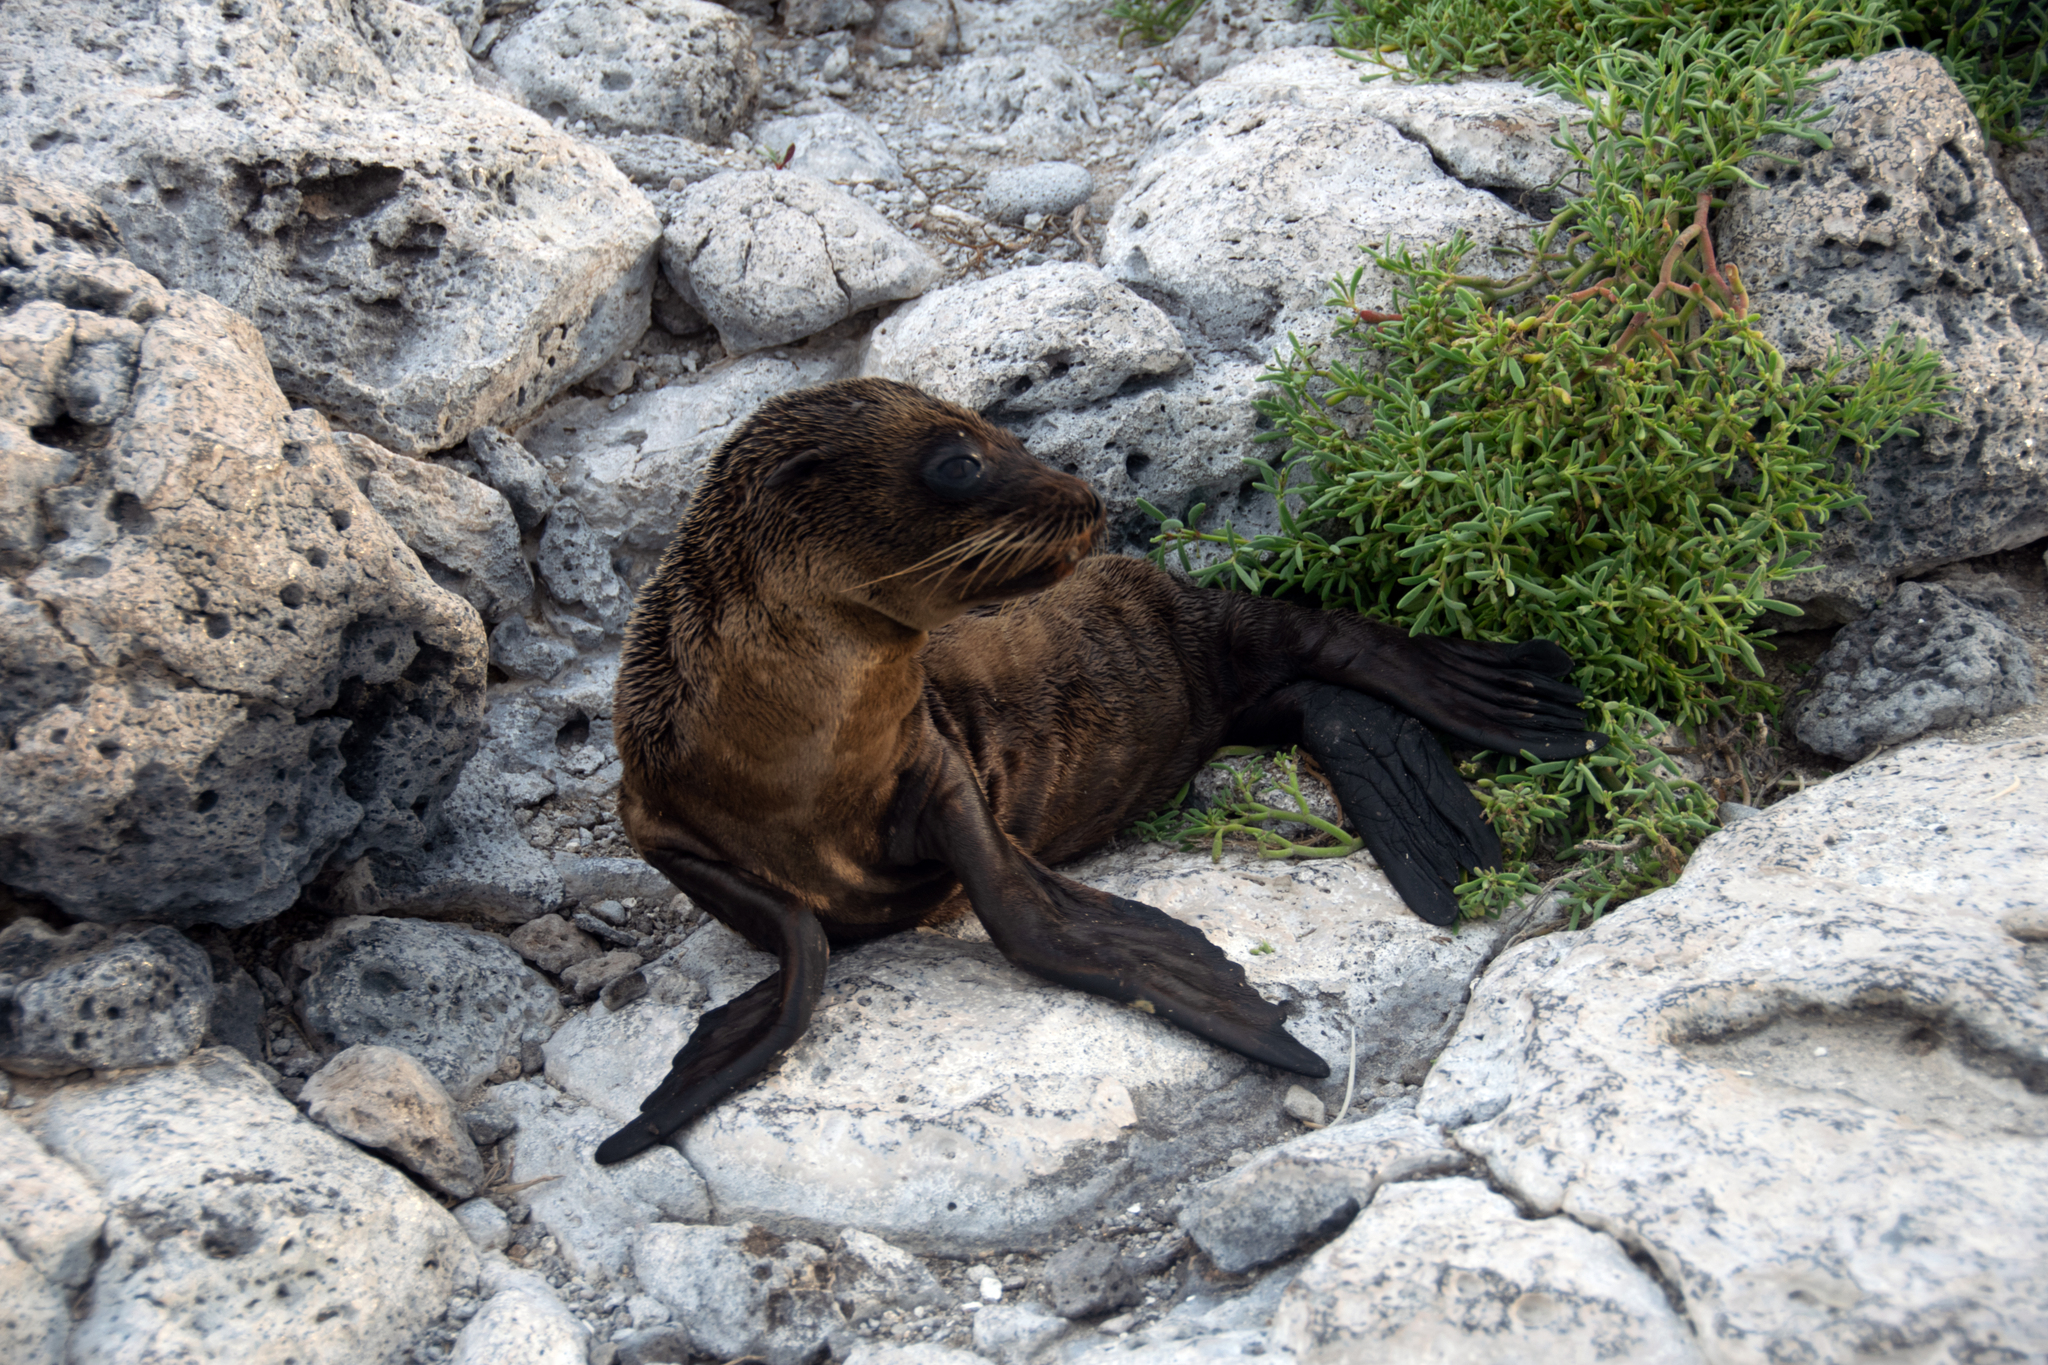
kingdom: Animalia
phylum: Chordata
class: Mammalia
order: Carnivora
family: Otariidae
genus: Zalophus
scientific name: Zalophus wollebaeki
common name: Galapagos sea lion
